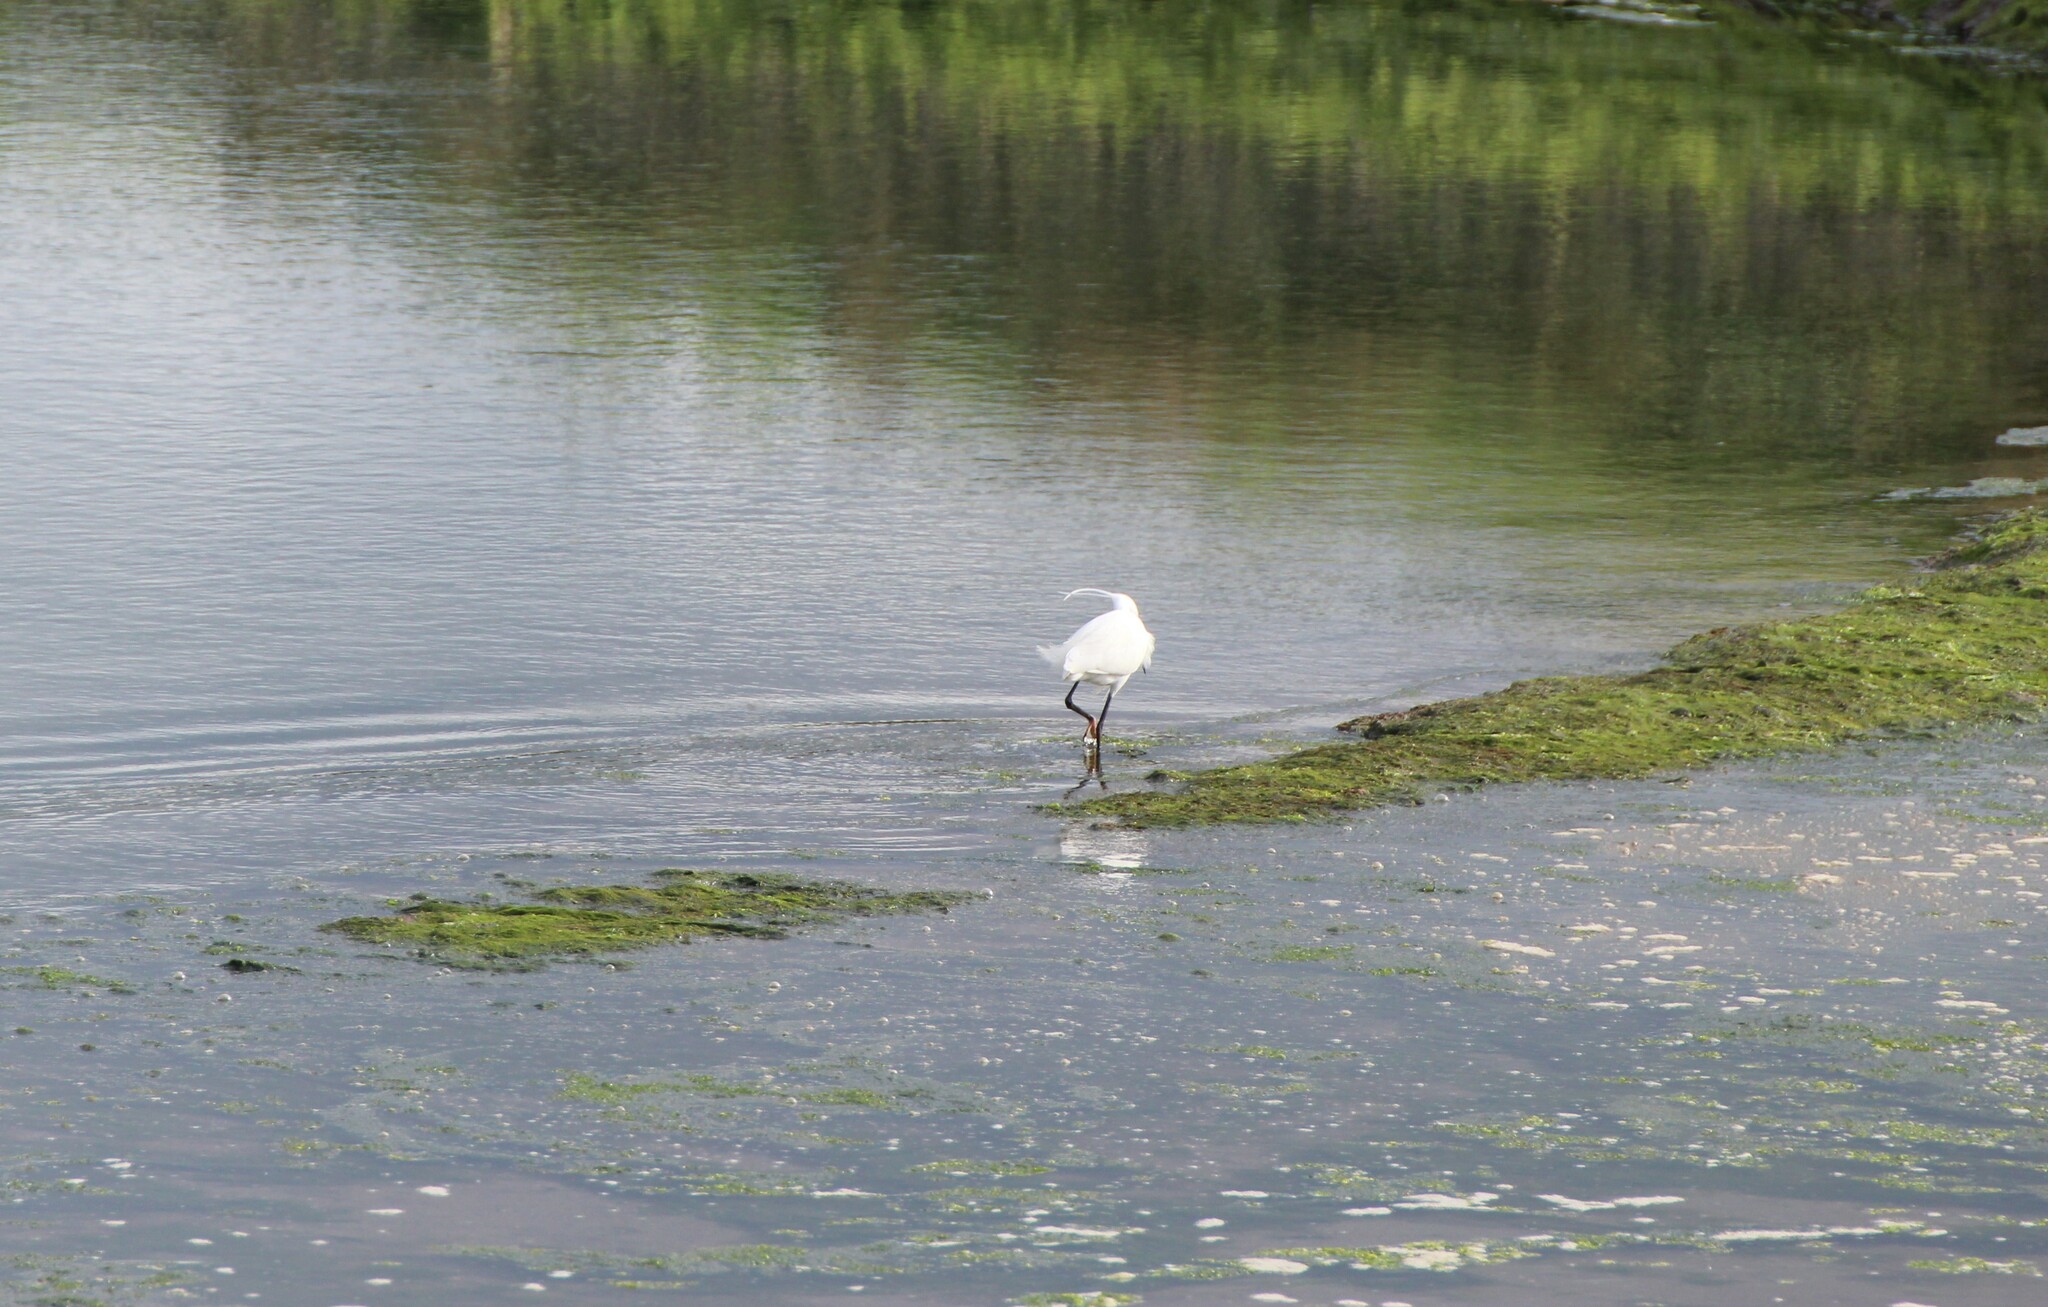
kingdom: Animalia
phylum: Chordata
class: Aves
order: Pelecaniformes
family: Ardeidae
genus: Egretta
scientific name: Egretta garzetta
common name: Little egret
